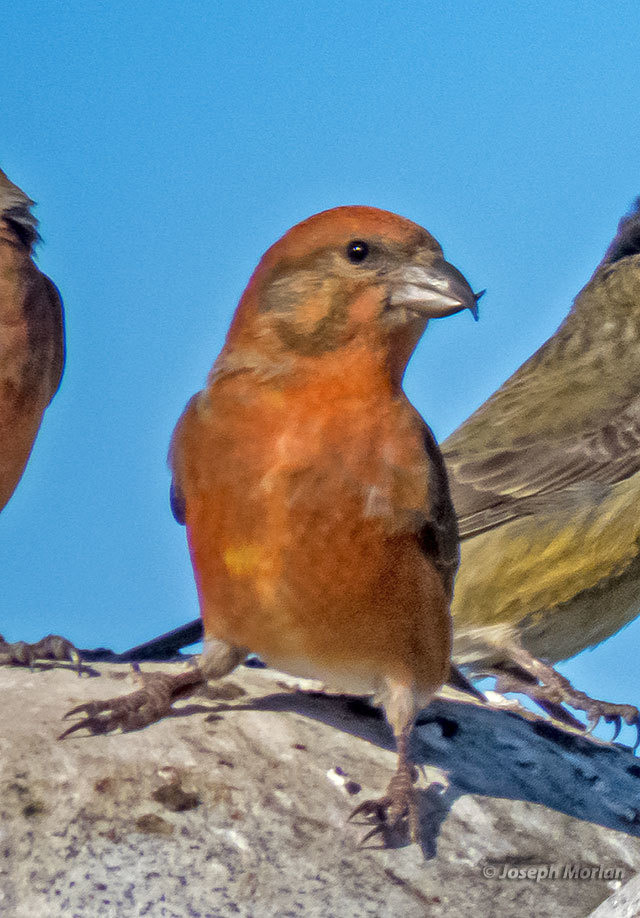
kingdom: Animalia
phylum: Chordata
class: Aves
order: Passeriformes
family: Fringillidae
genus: Loxia
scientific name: Loxia curvirostra
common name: Red crossbill
